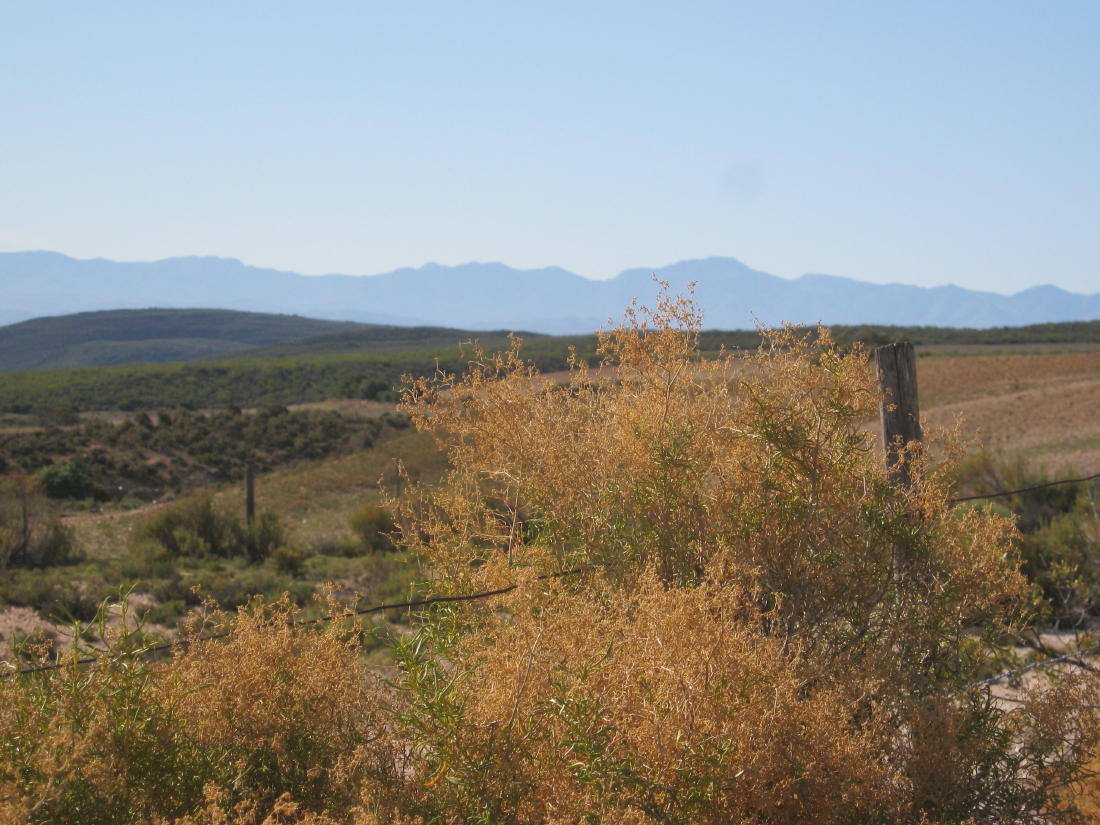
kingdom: Plantae
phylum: Tracheophyta
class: Magnoliopsida
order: Caryophyllales
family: Aizoaceae
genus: Aizoon
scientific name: Aizoon africanum
